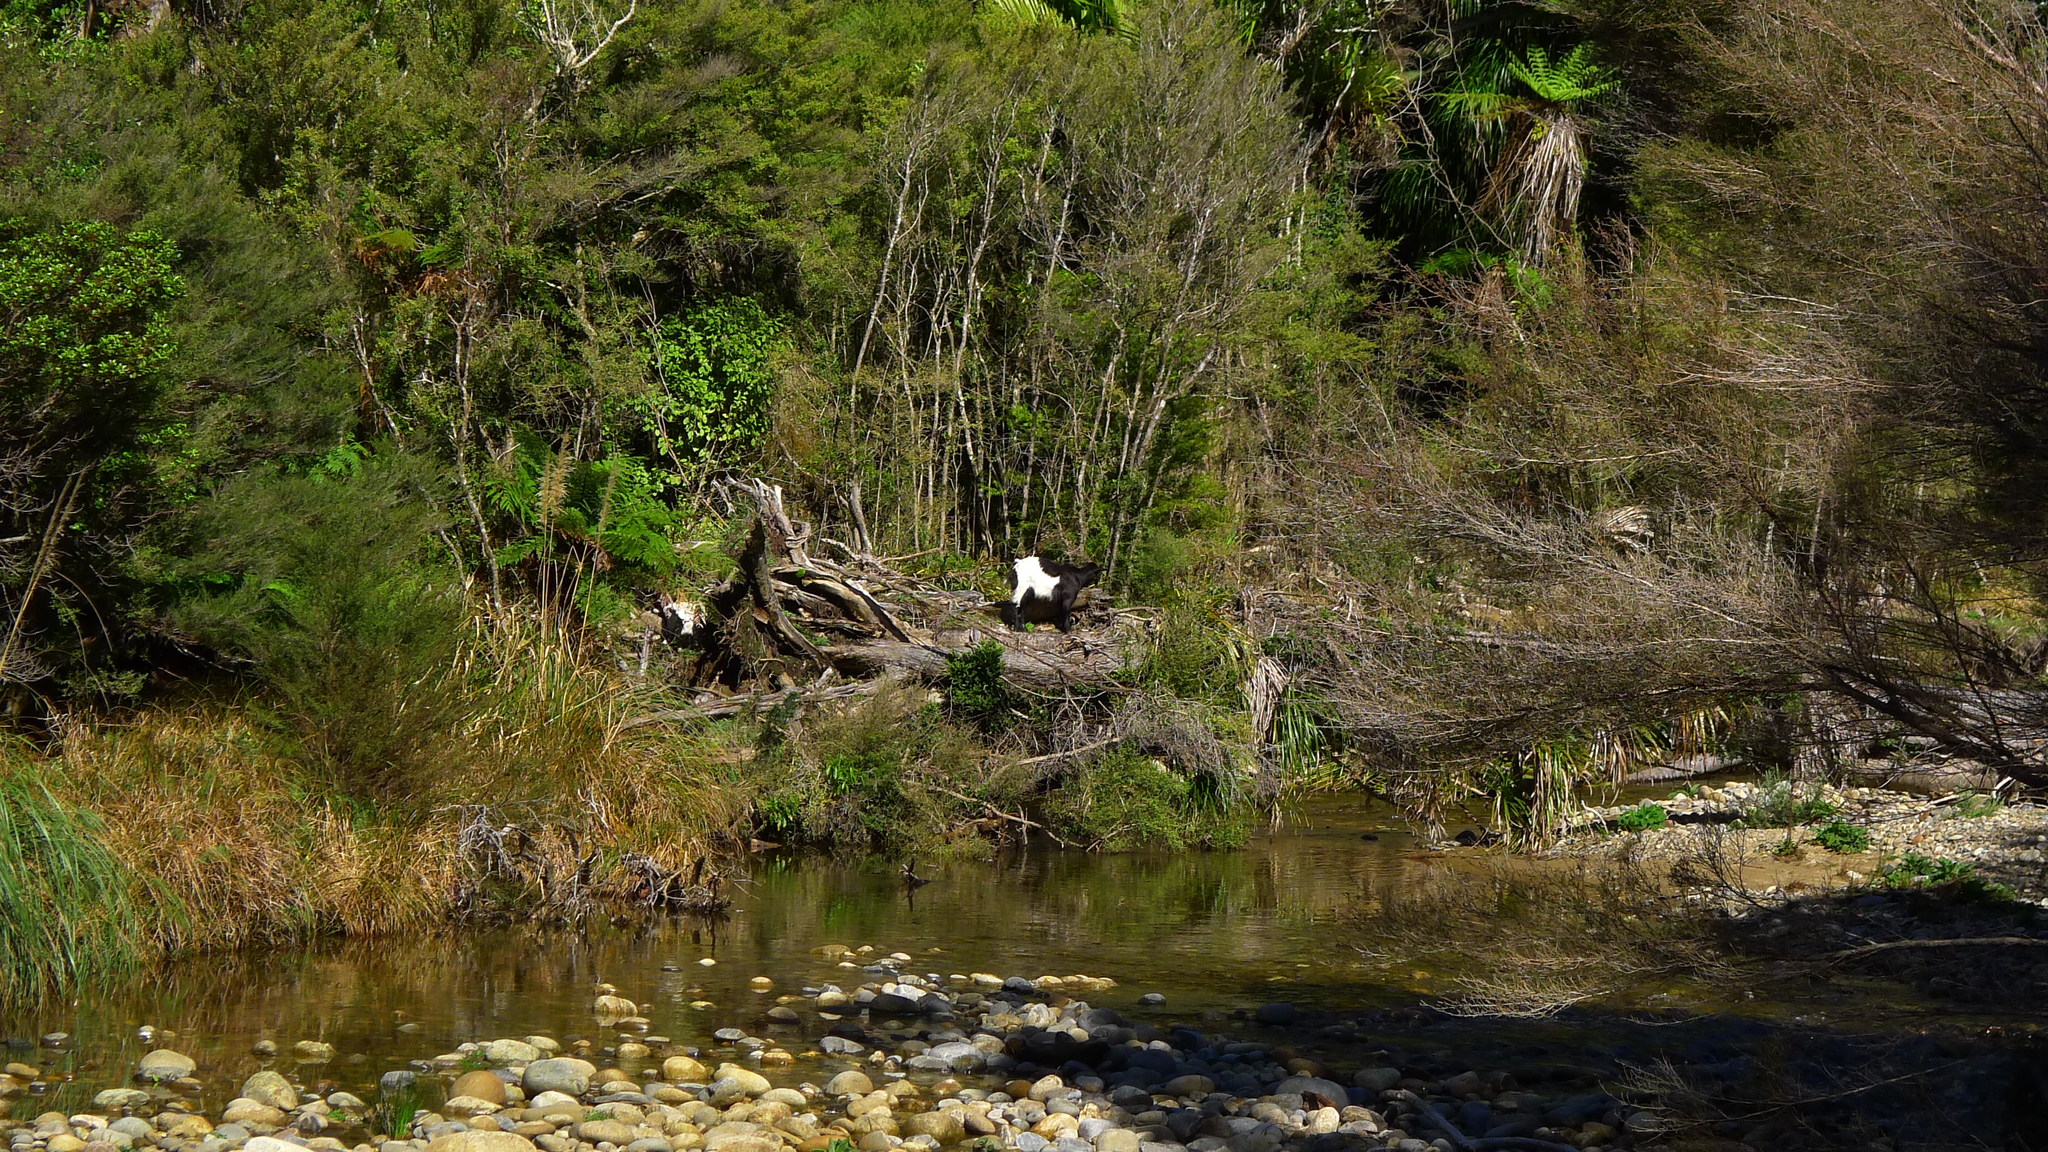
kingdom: Animalia
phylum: Chordata
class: Mammalia
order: Artiodactyla
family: Bovidae
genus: Capra
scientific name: Capra hircus
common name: Domestic goat
